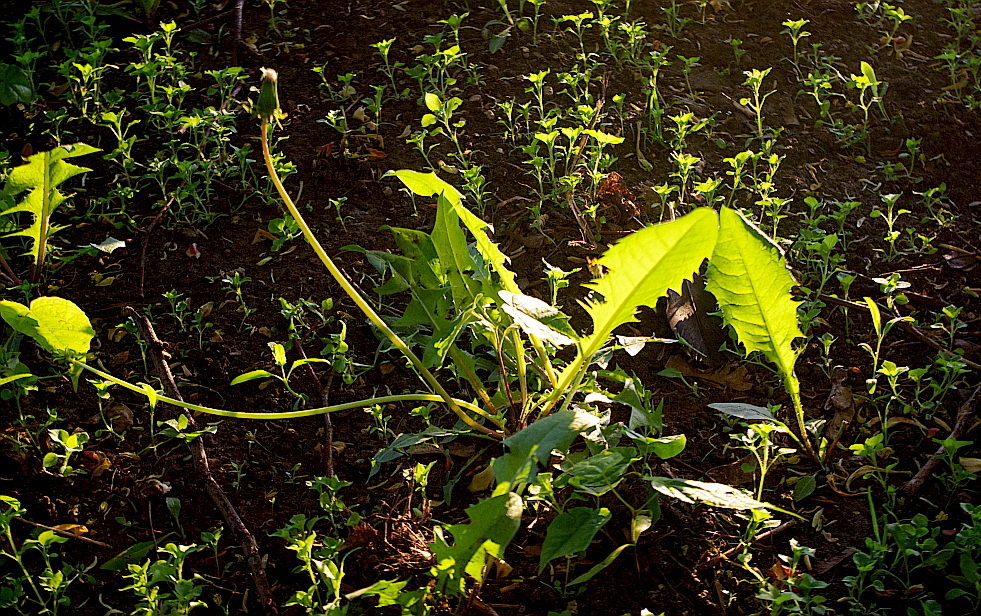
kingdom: Plantae
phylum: Tracheophyta
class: Magnoliopsida
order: Asterales
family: Asteraceae
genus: Taraxacum
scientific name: Taraxacum officinale
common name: Common dandelion
